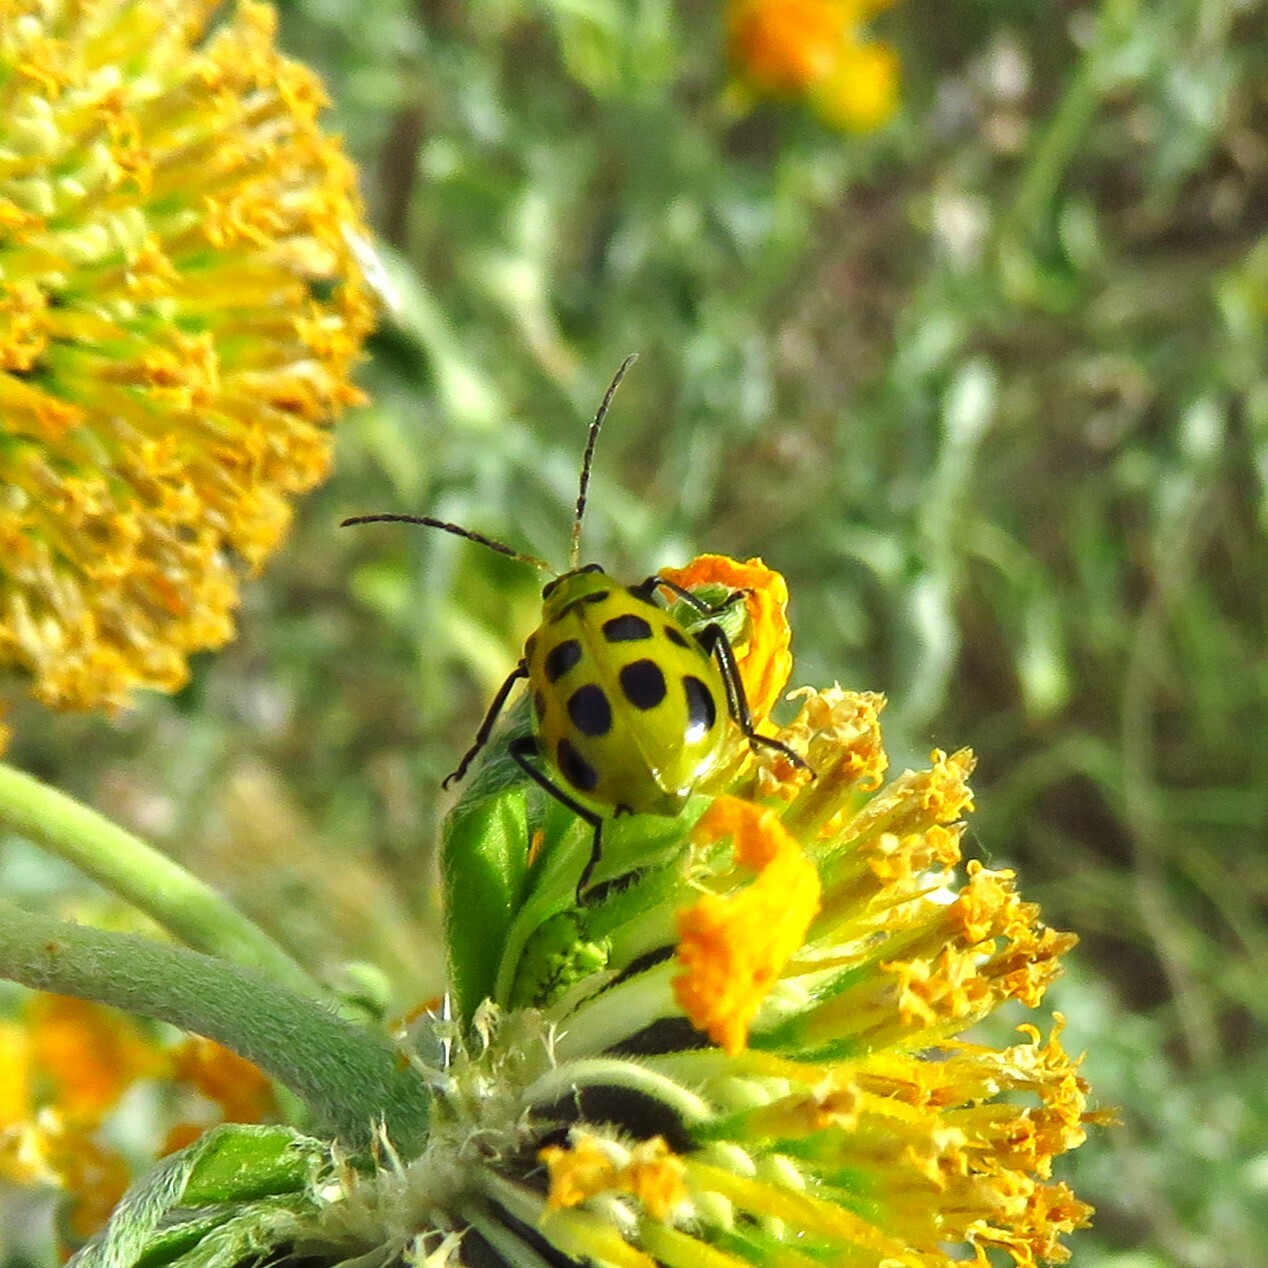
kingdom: Animalia
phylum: Arthropoda
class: Insecta
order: Coleoptera
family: Chrysomelidae
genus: Diabrotica
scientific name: Diabrotica undecimpunctata
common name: Spotted cucumber beetle
